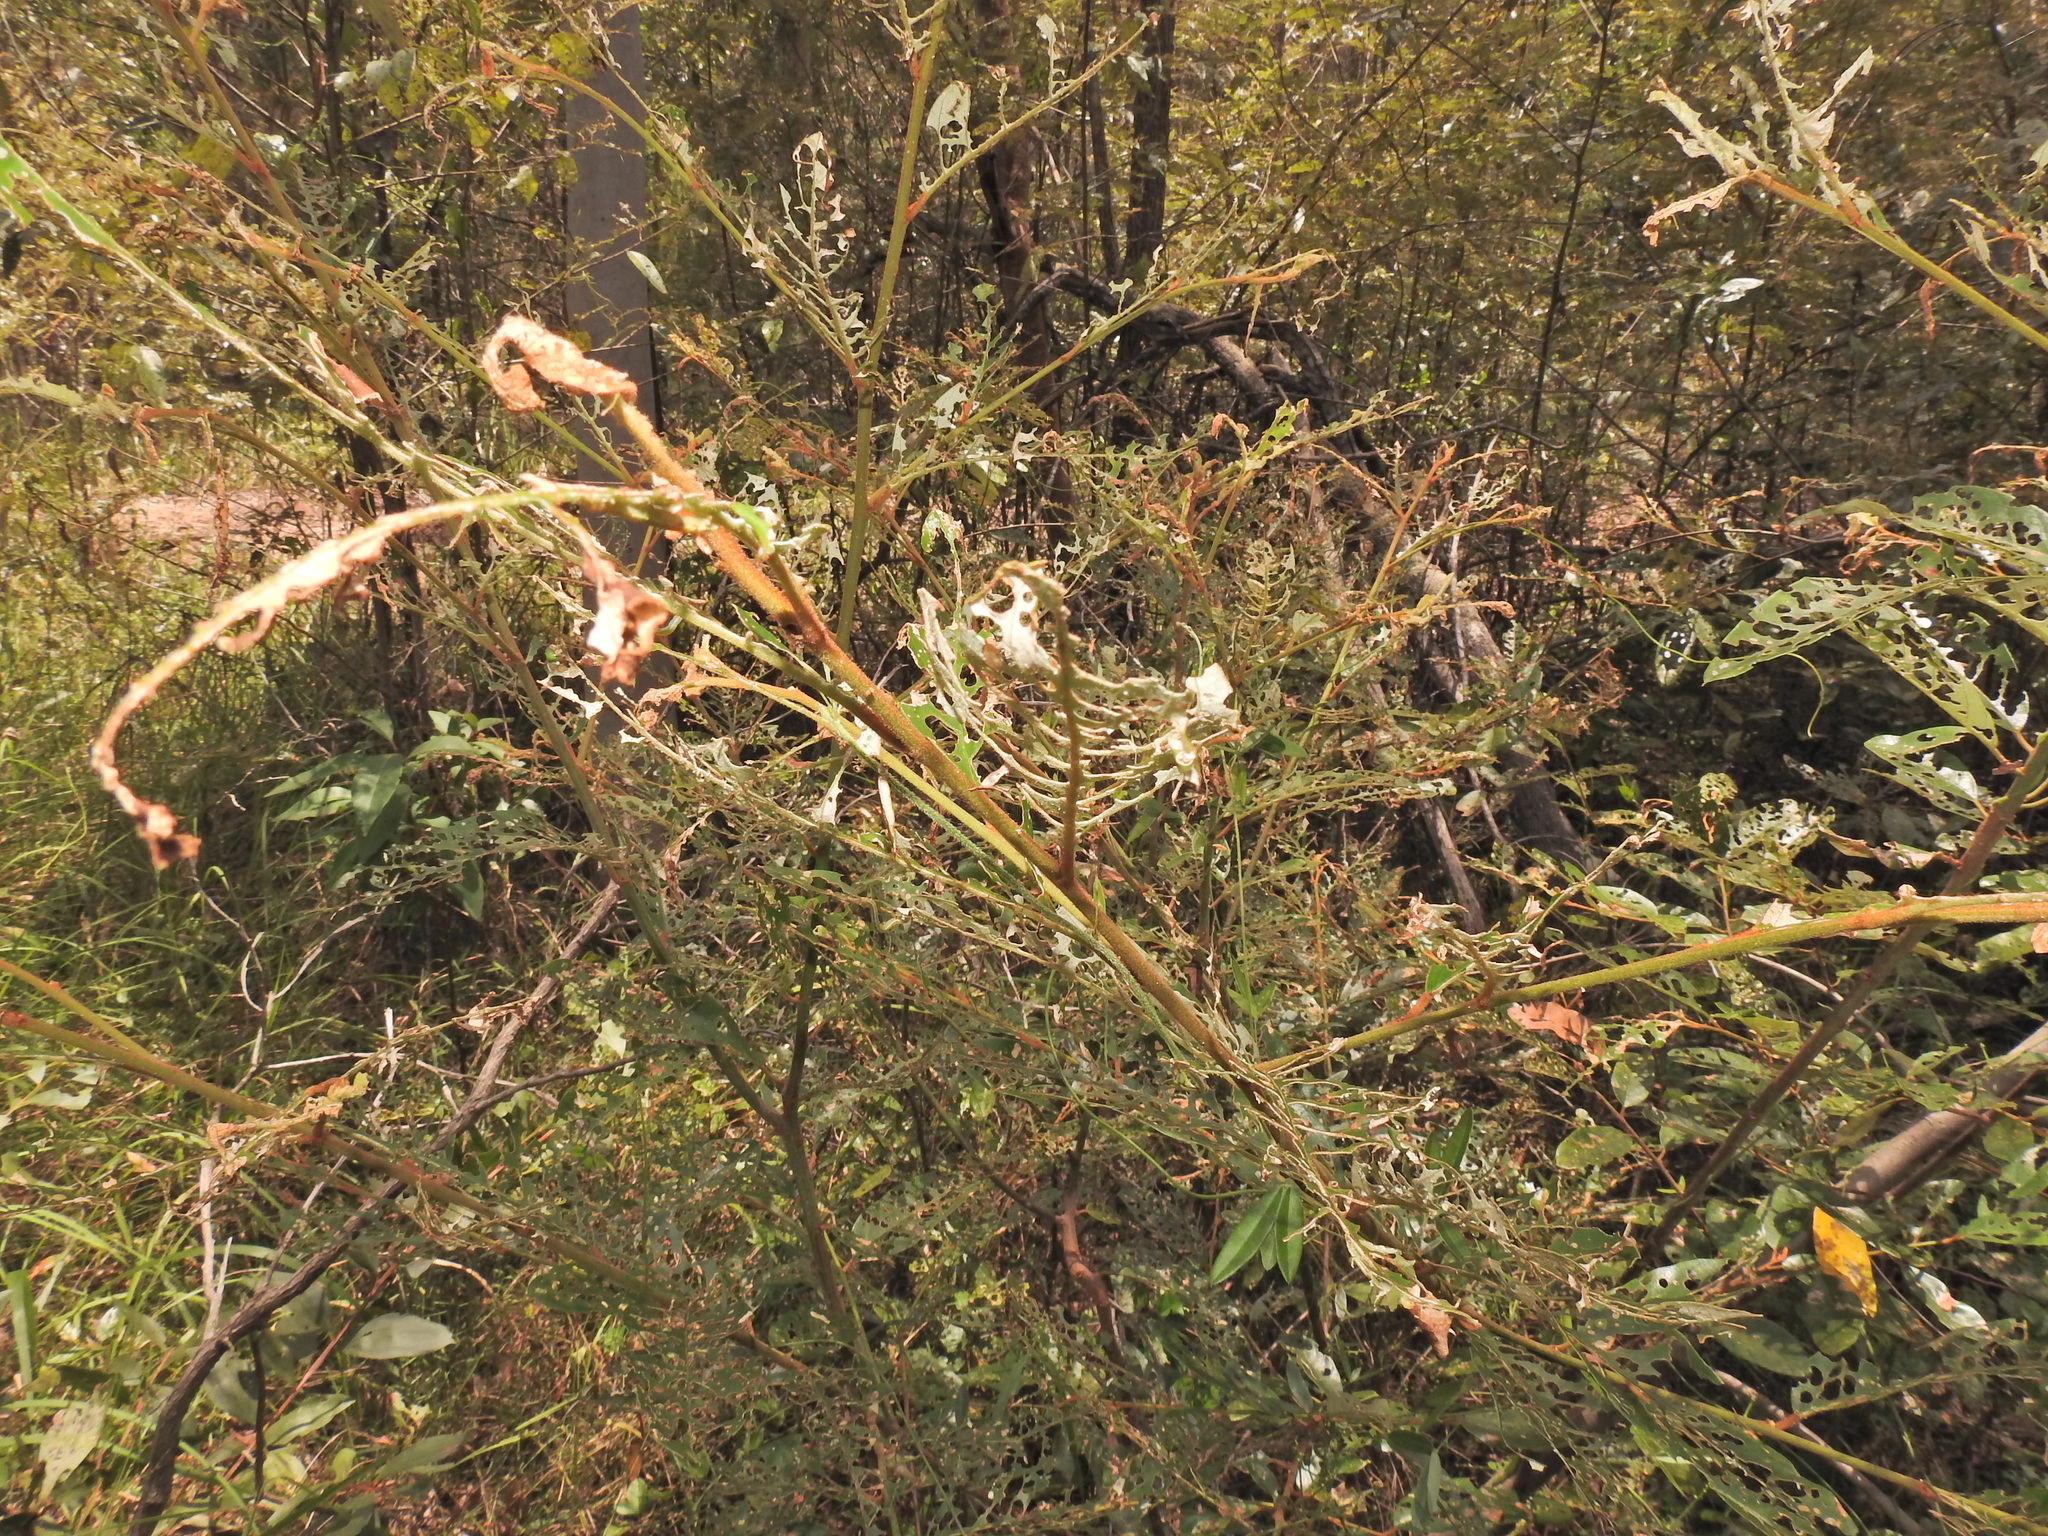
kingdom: Plantae
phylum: Tracheophyta
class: Magnoliopsida
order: Rosales
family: Rhamnaceae
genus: Alphitonia
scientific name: Alphitonia excelsa
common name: Red ash
